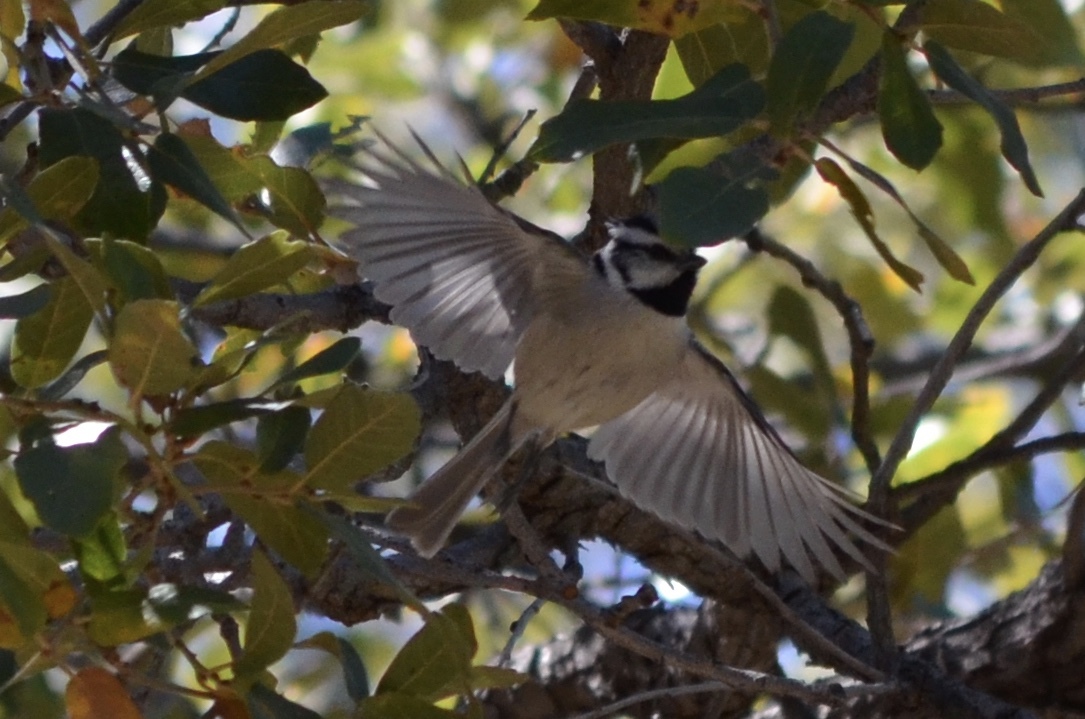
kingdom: Animalia
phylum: Chordata
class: Aves
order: Passeriformes
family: Paridae
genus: Baeolophus
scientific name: Baeolophus wollweberi
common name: Bridled titmouse
